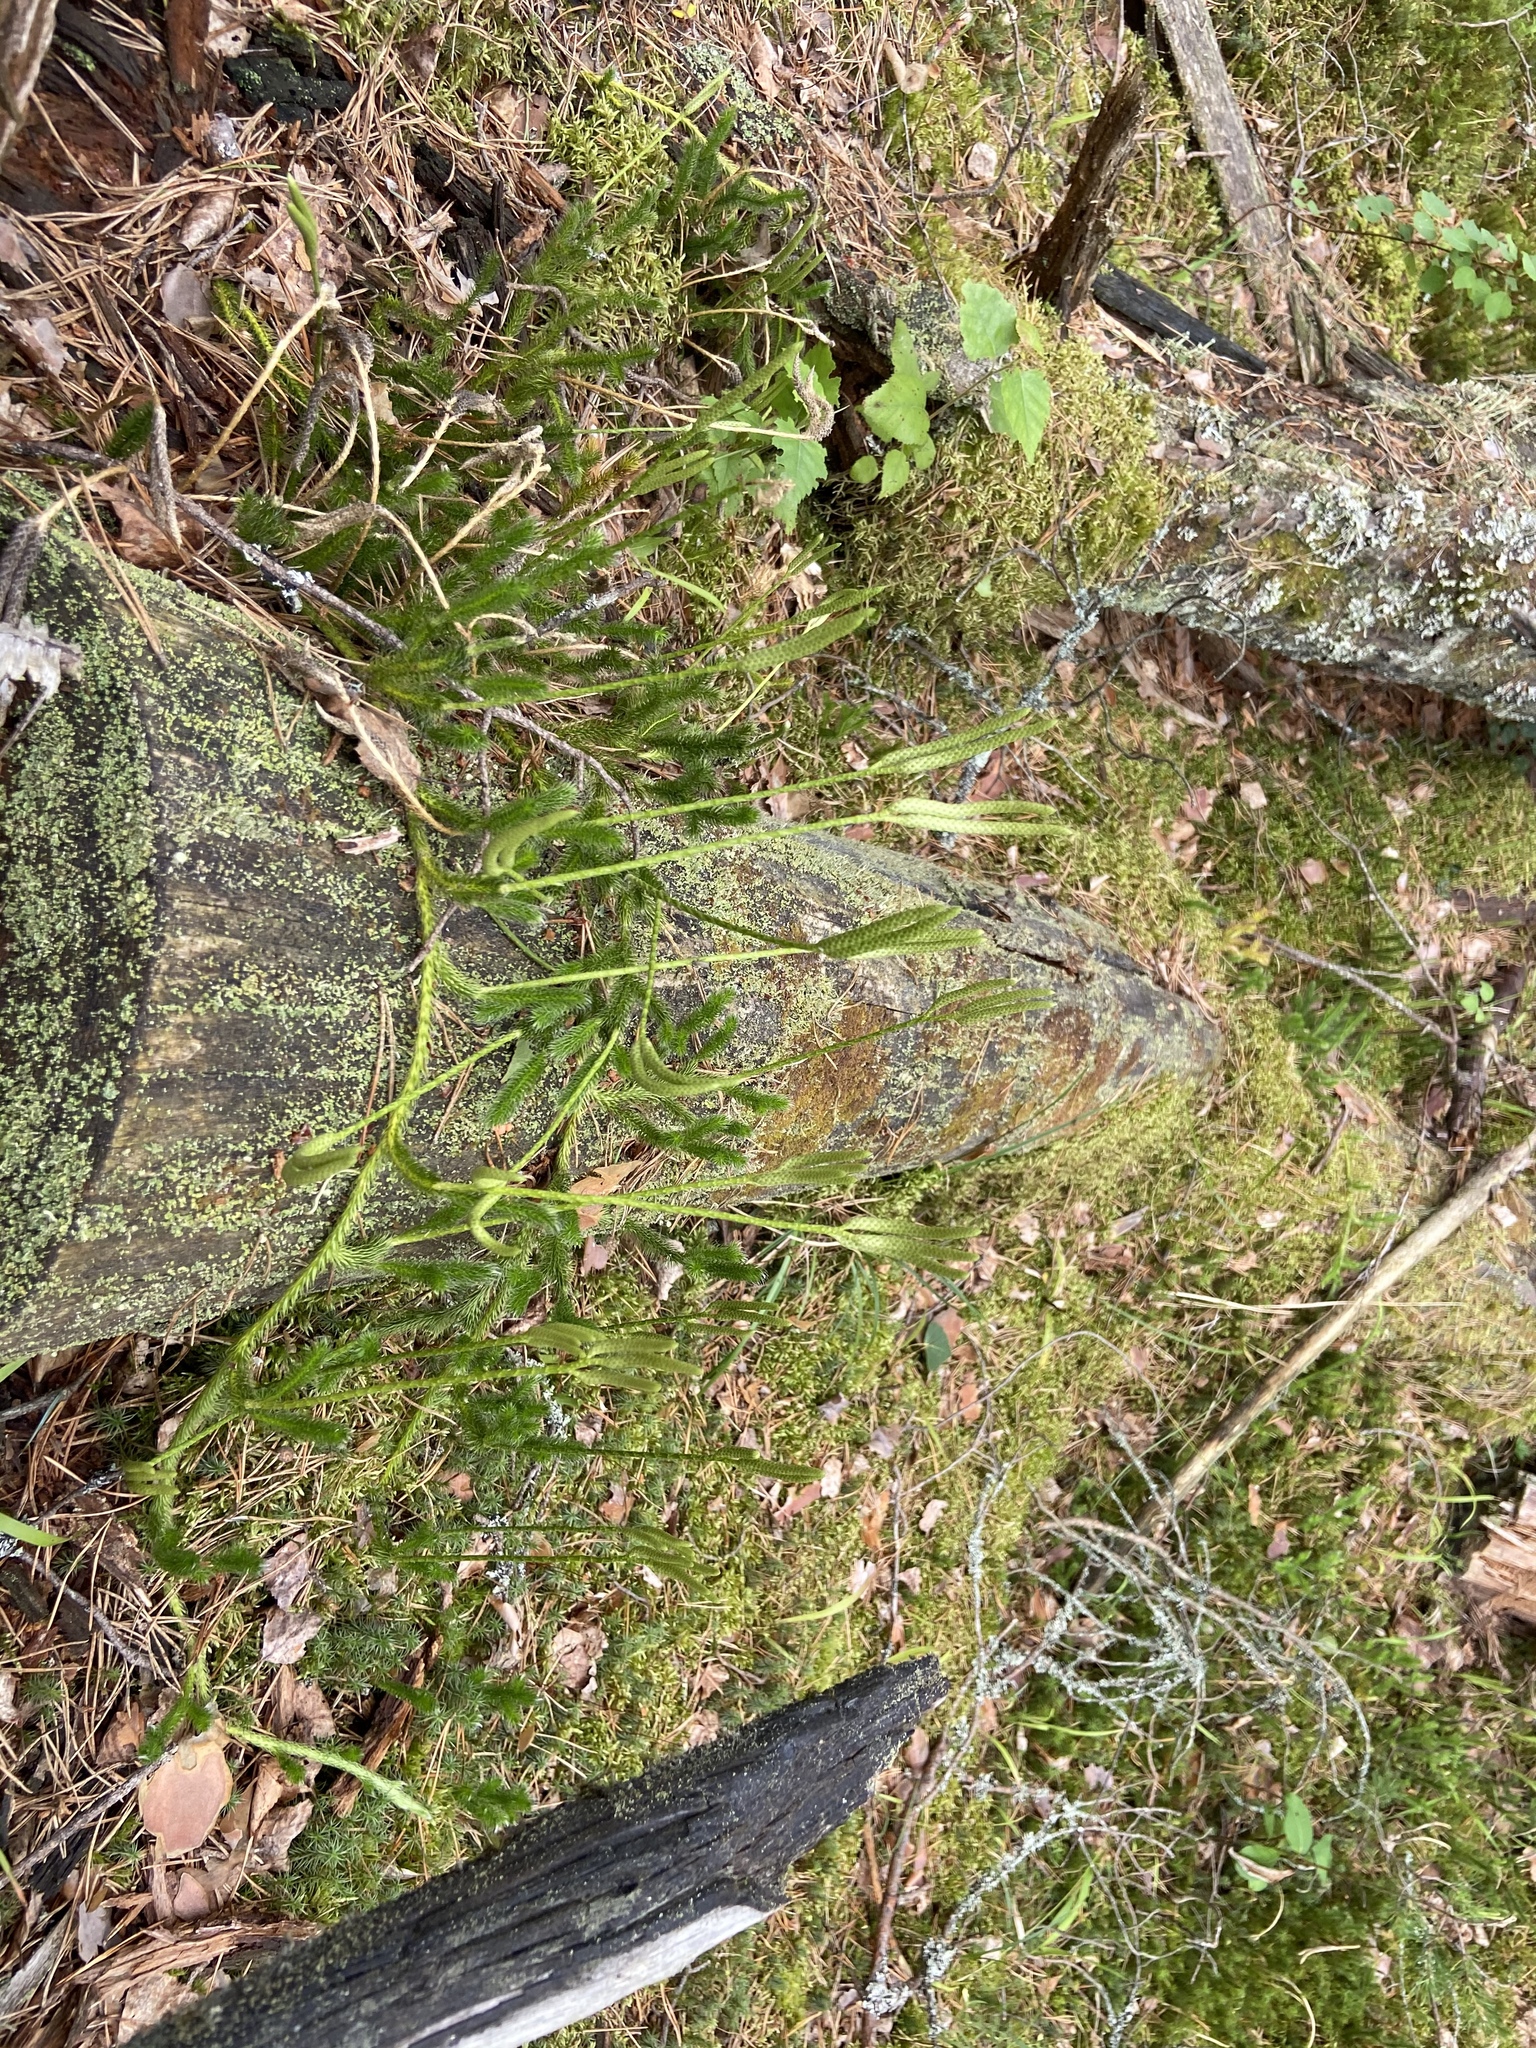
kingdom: Plantae
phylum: Tracheophyta
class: Lycopodiopsida
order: Lycopodiales
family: Lycopodiaceae
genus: Lycopodium
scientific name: Lycopodium clavatum
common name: Stag's-horn clubmoss
